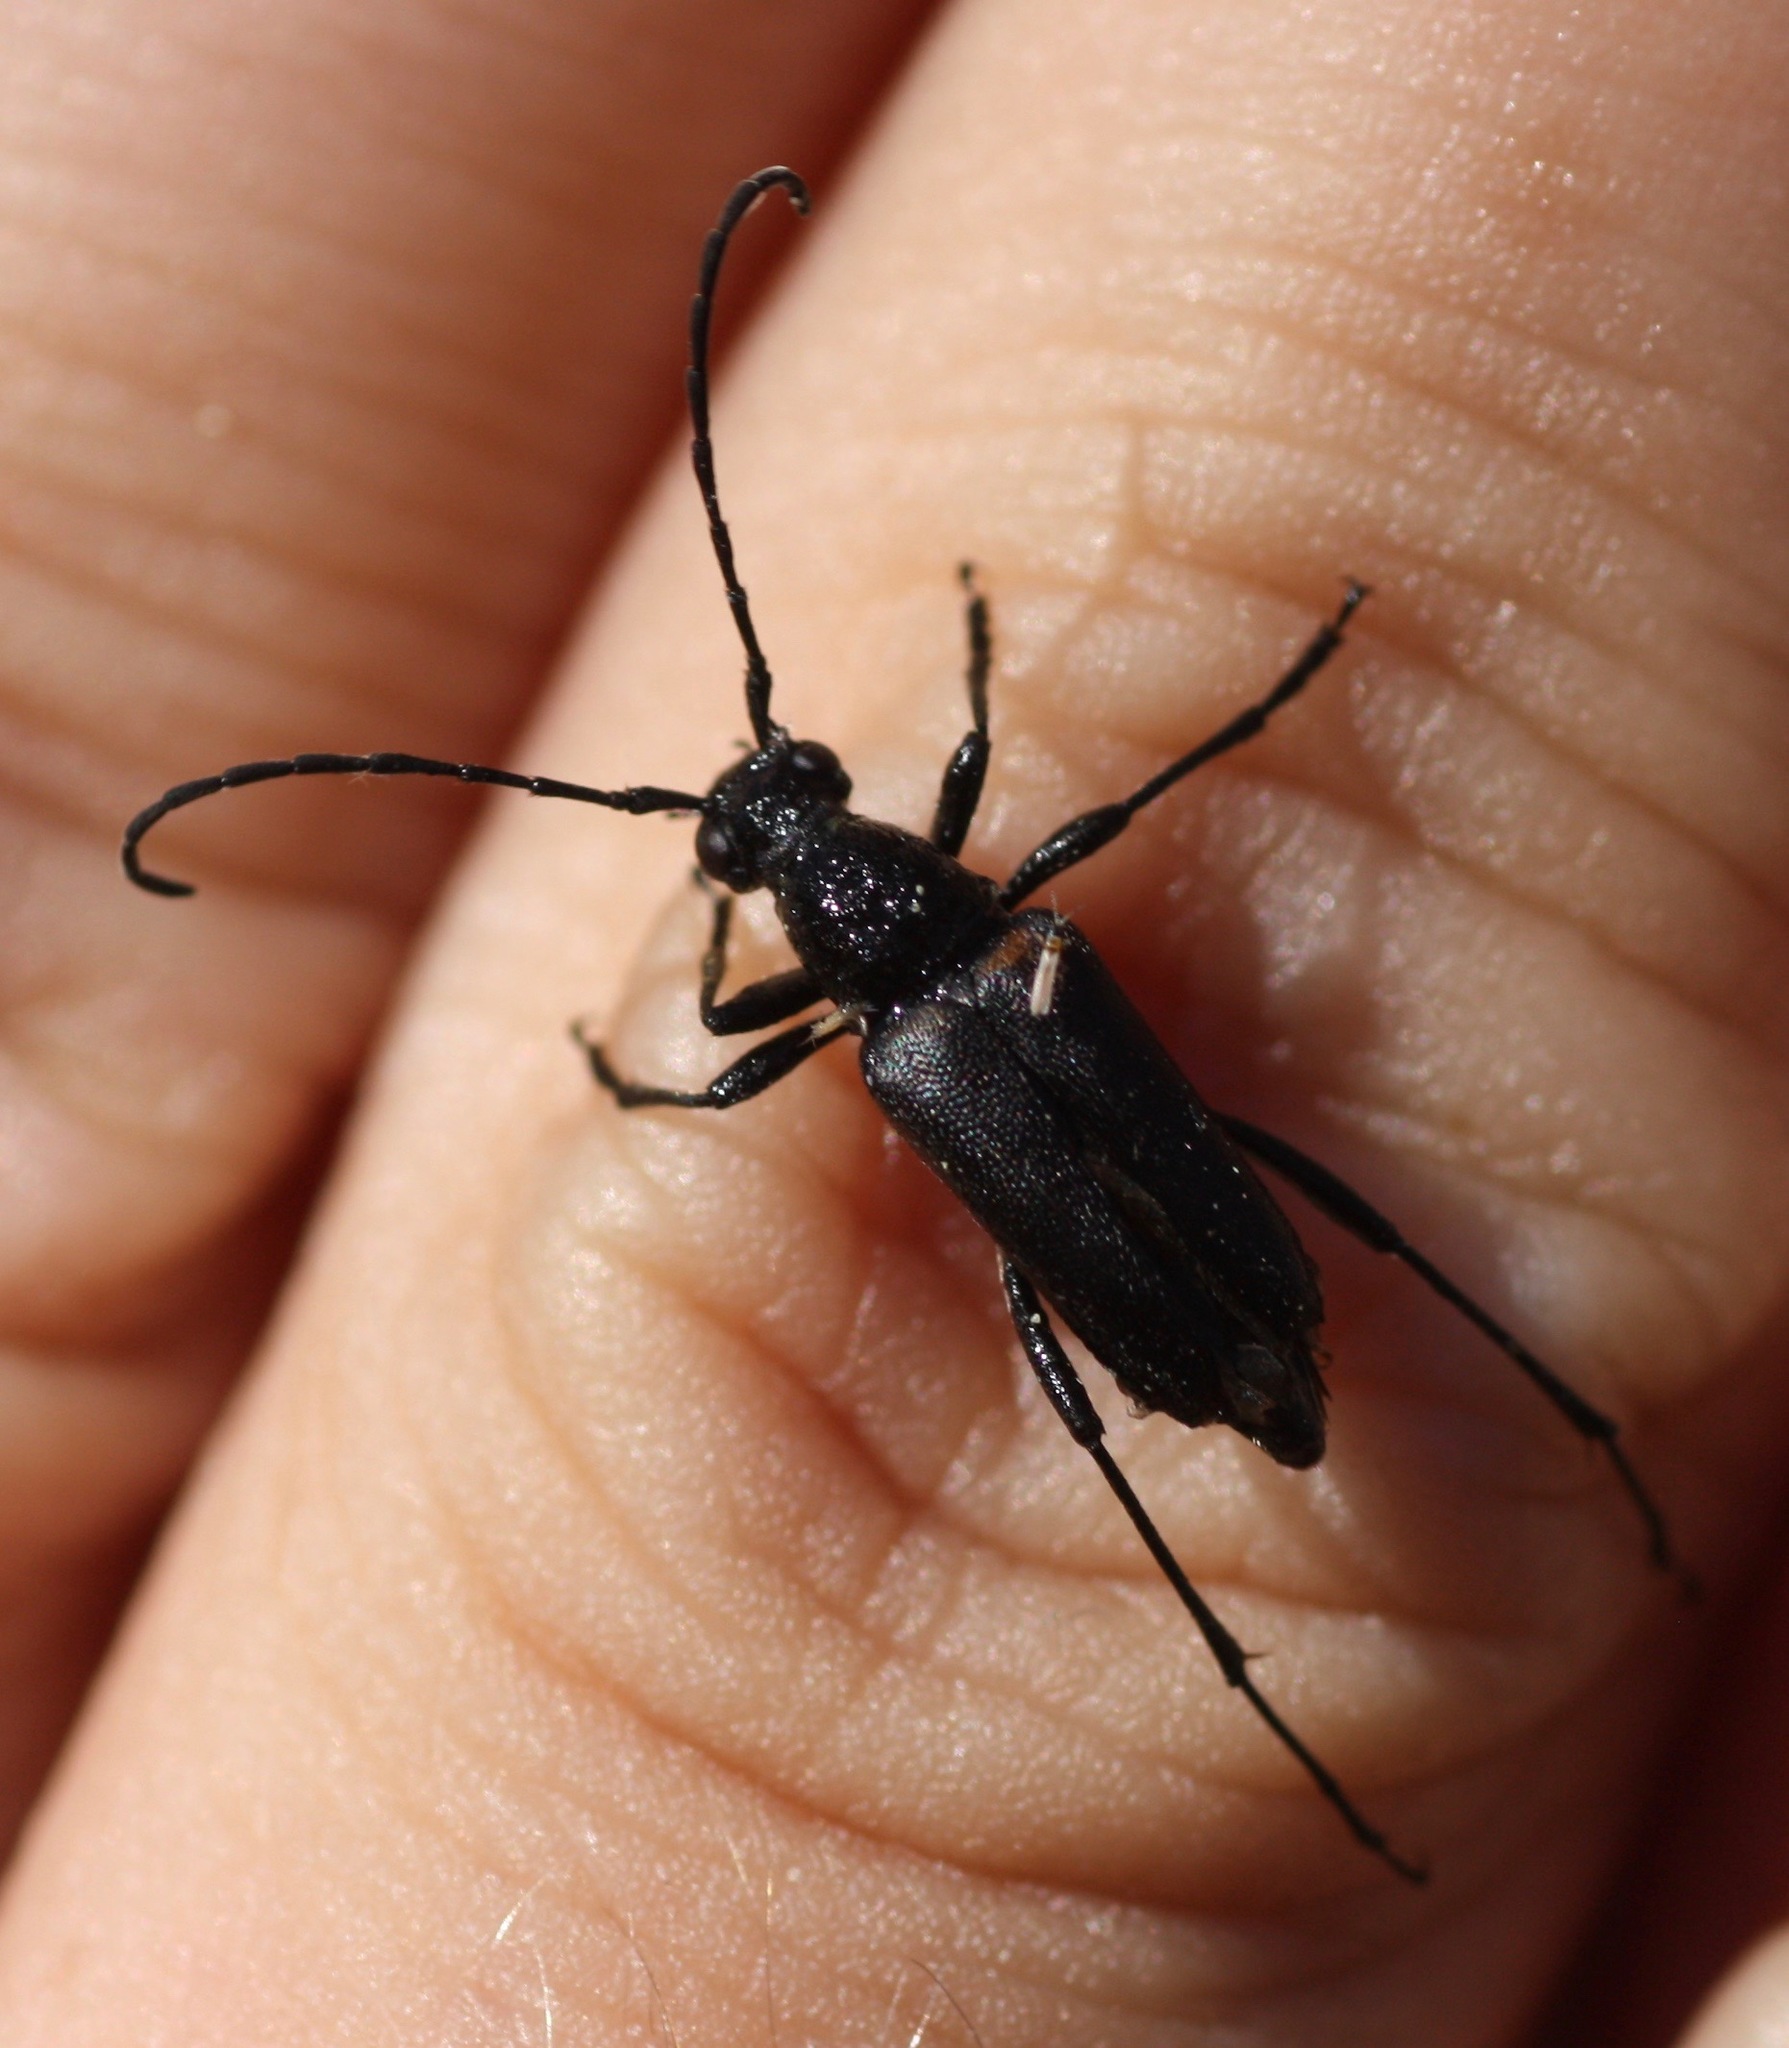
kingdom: Animalia
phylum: Arthropoda
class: Insecta
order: Coleoptera
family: Cerambycidae
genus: Anastrangalia
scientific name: Anastrangalia laetifica
